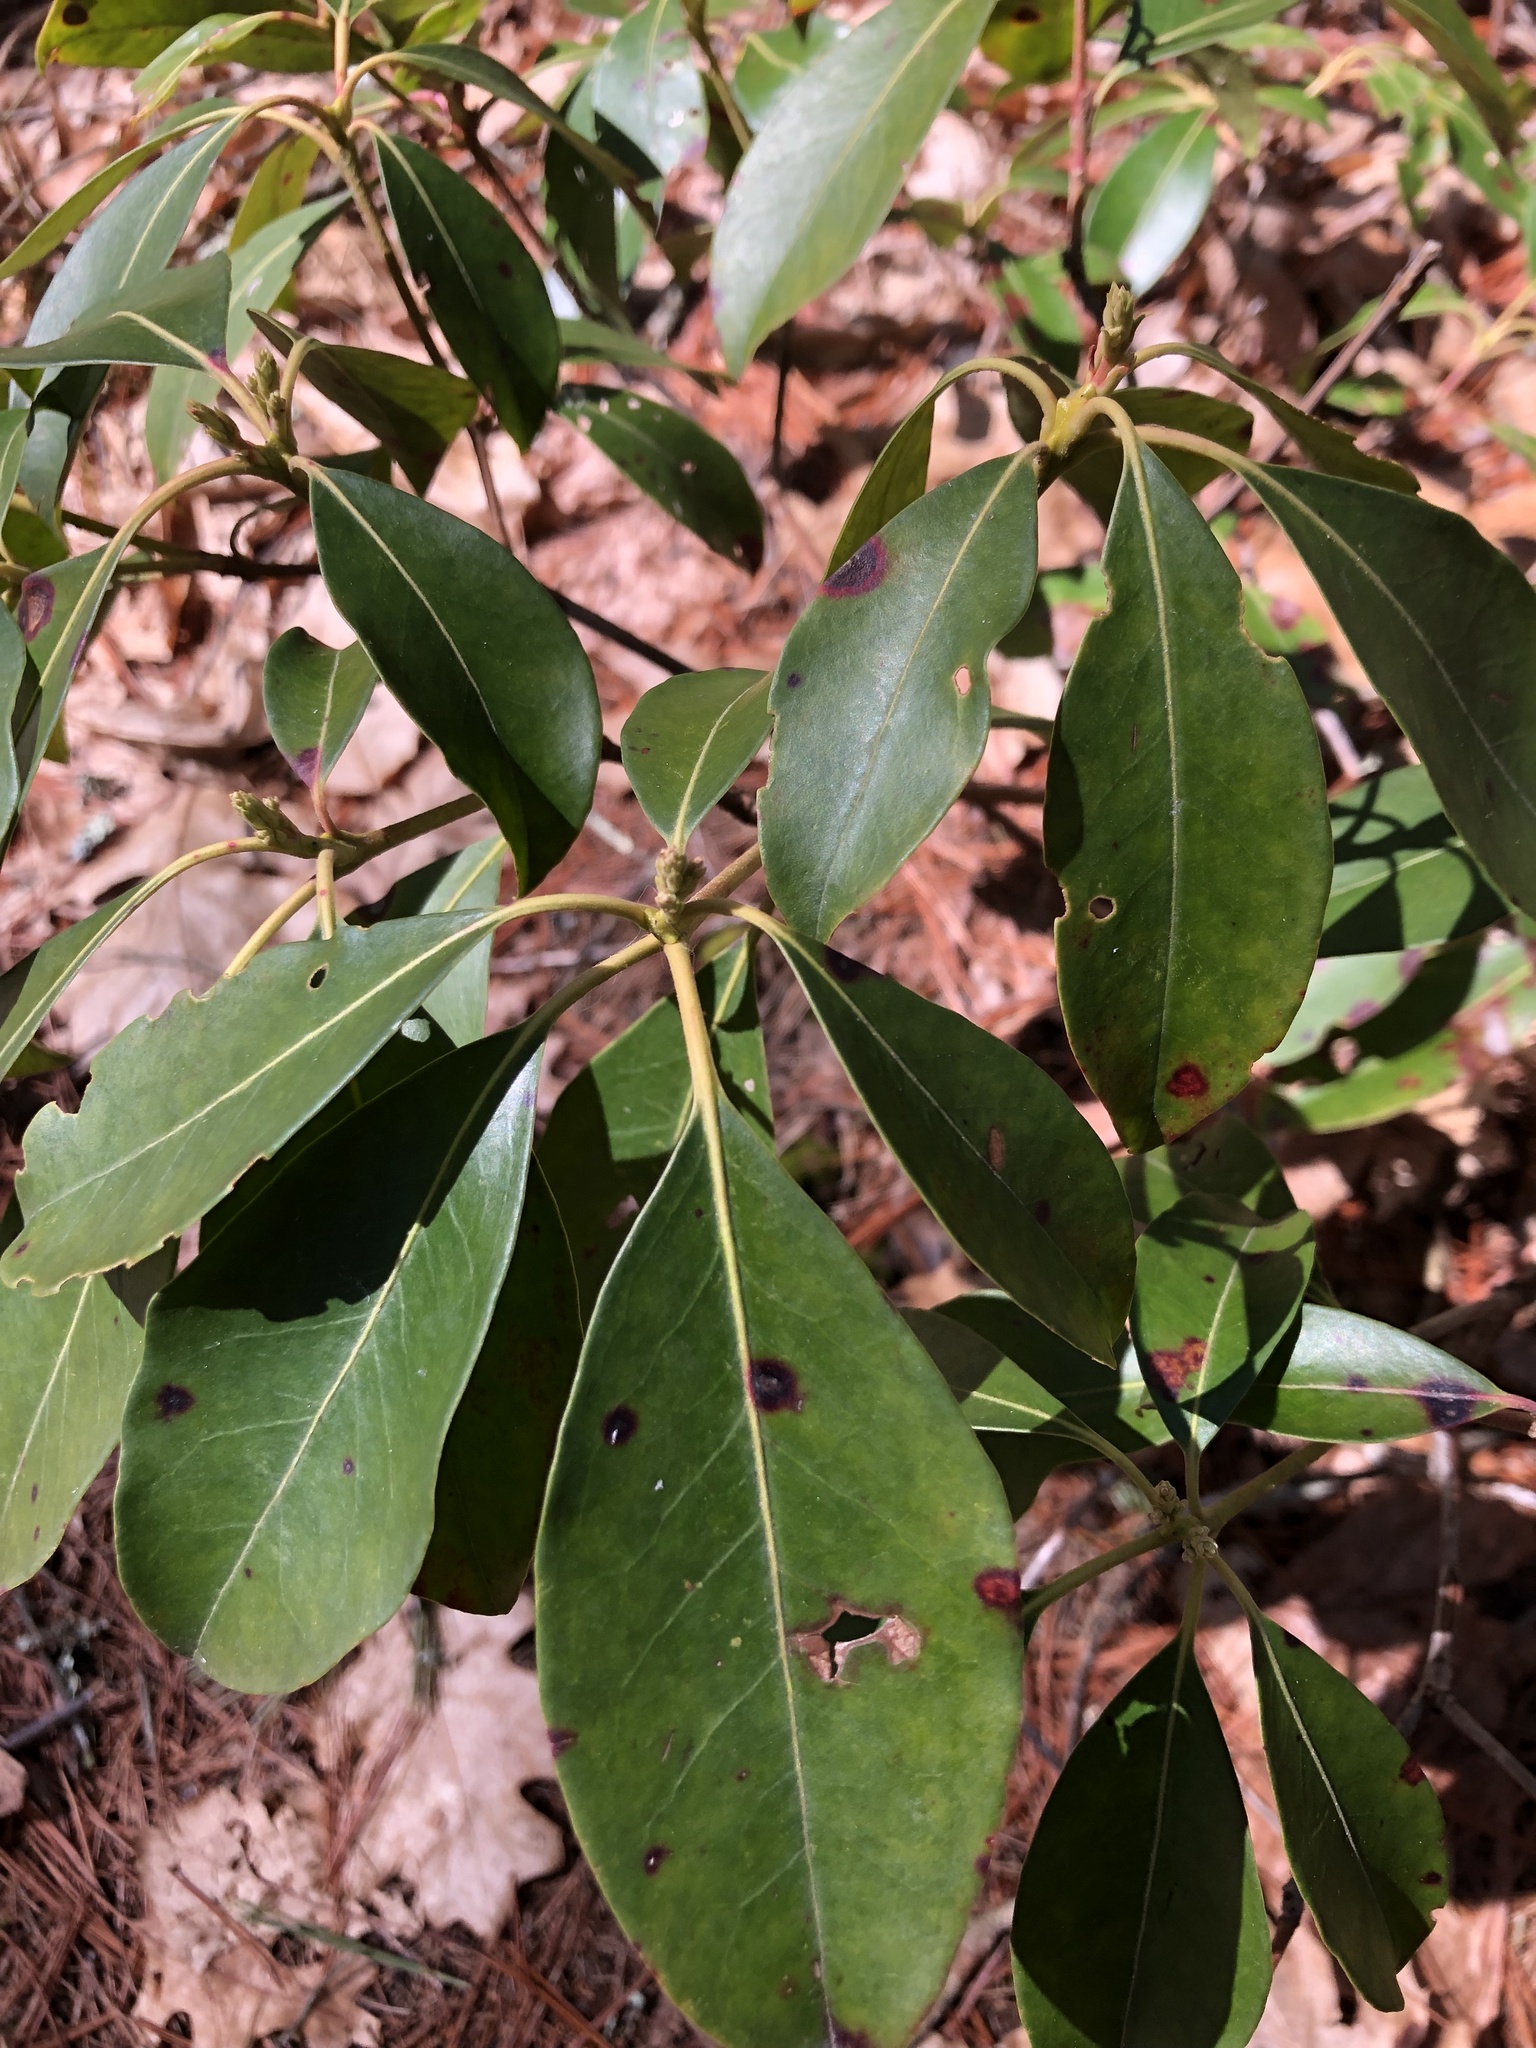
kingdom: Plantae
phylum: Tracheophyta
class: Magnoliopsida
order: Ericales
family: Ericaceae
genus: Kalmia
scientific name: Kalmia latifolia
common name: Mountain-laurel
